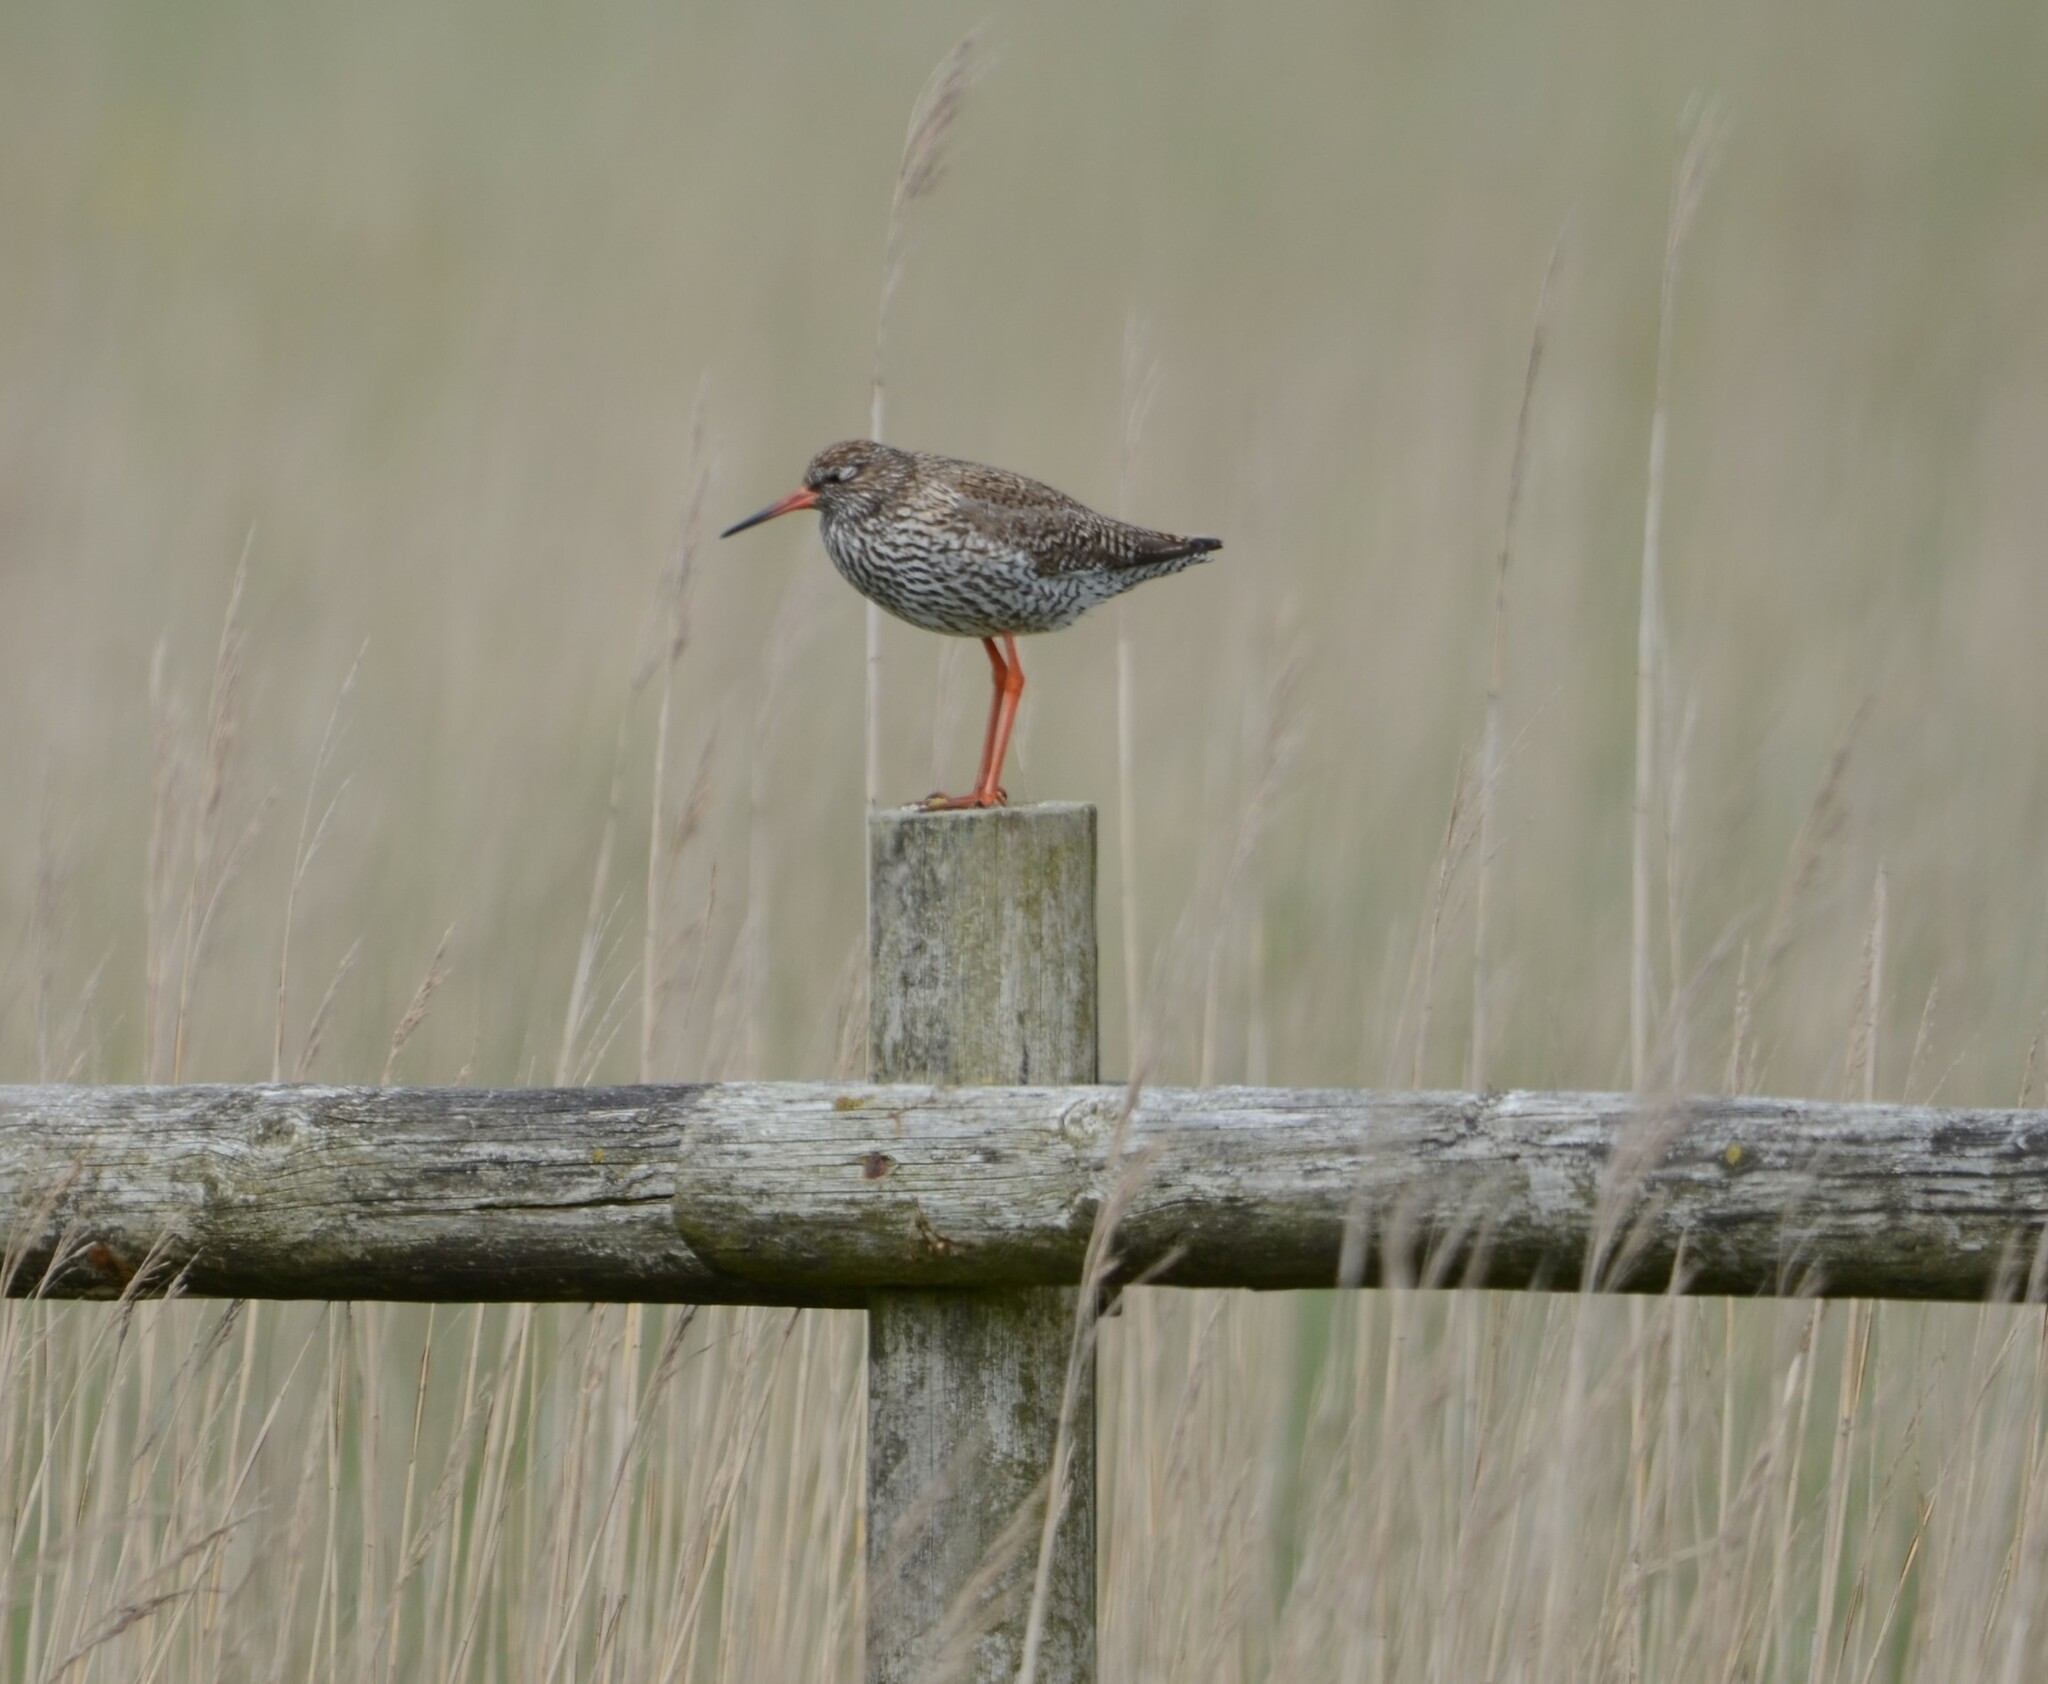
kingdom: Animalia
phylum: Chordata
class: Aves
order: Charadriiformes
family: Scolopacidae
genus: Tringa
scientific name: Tringa totanus
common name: Common redshank
